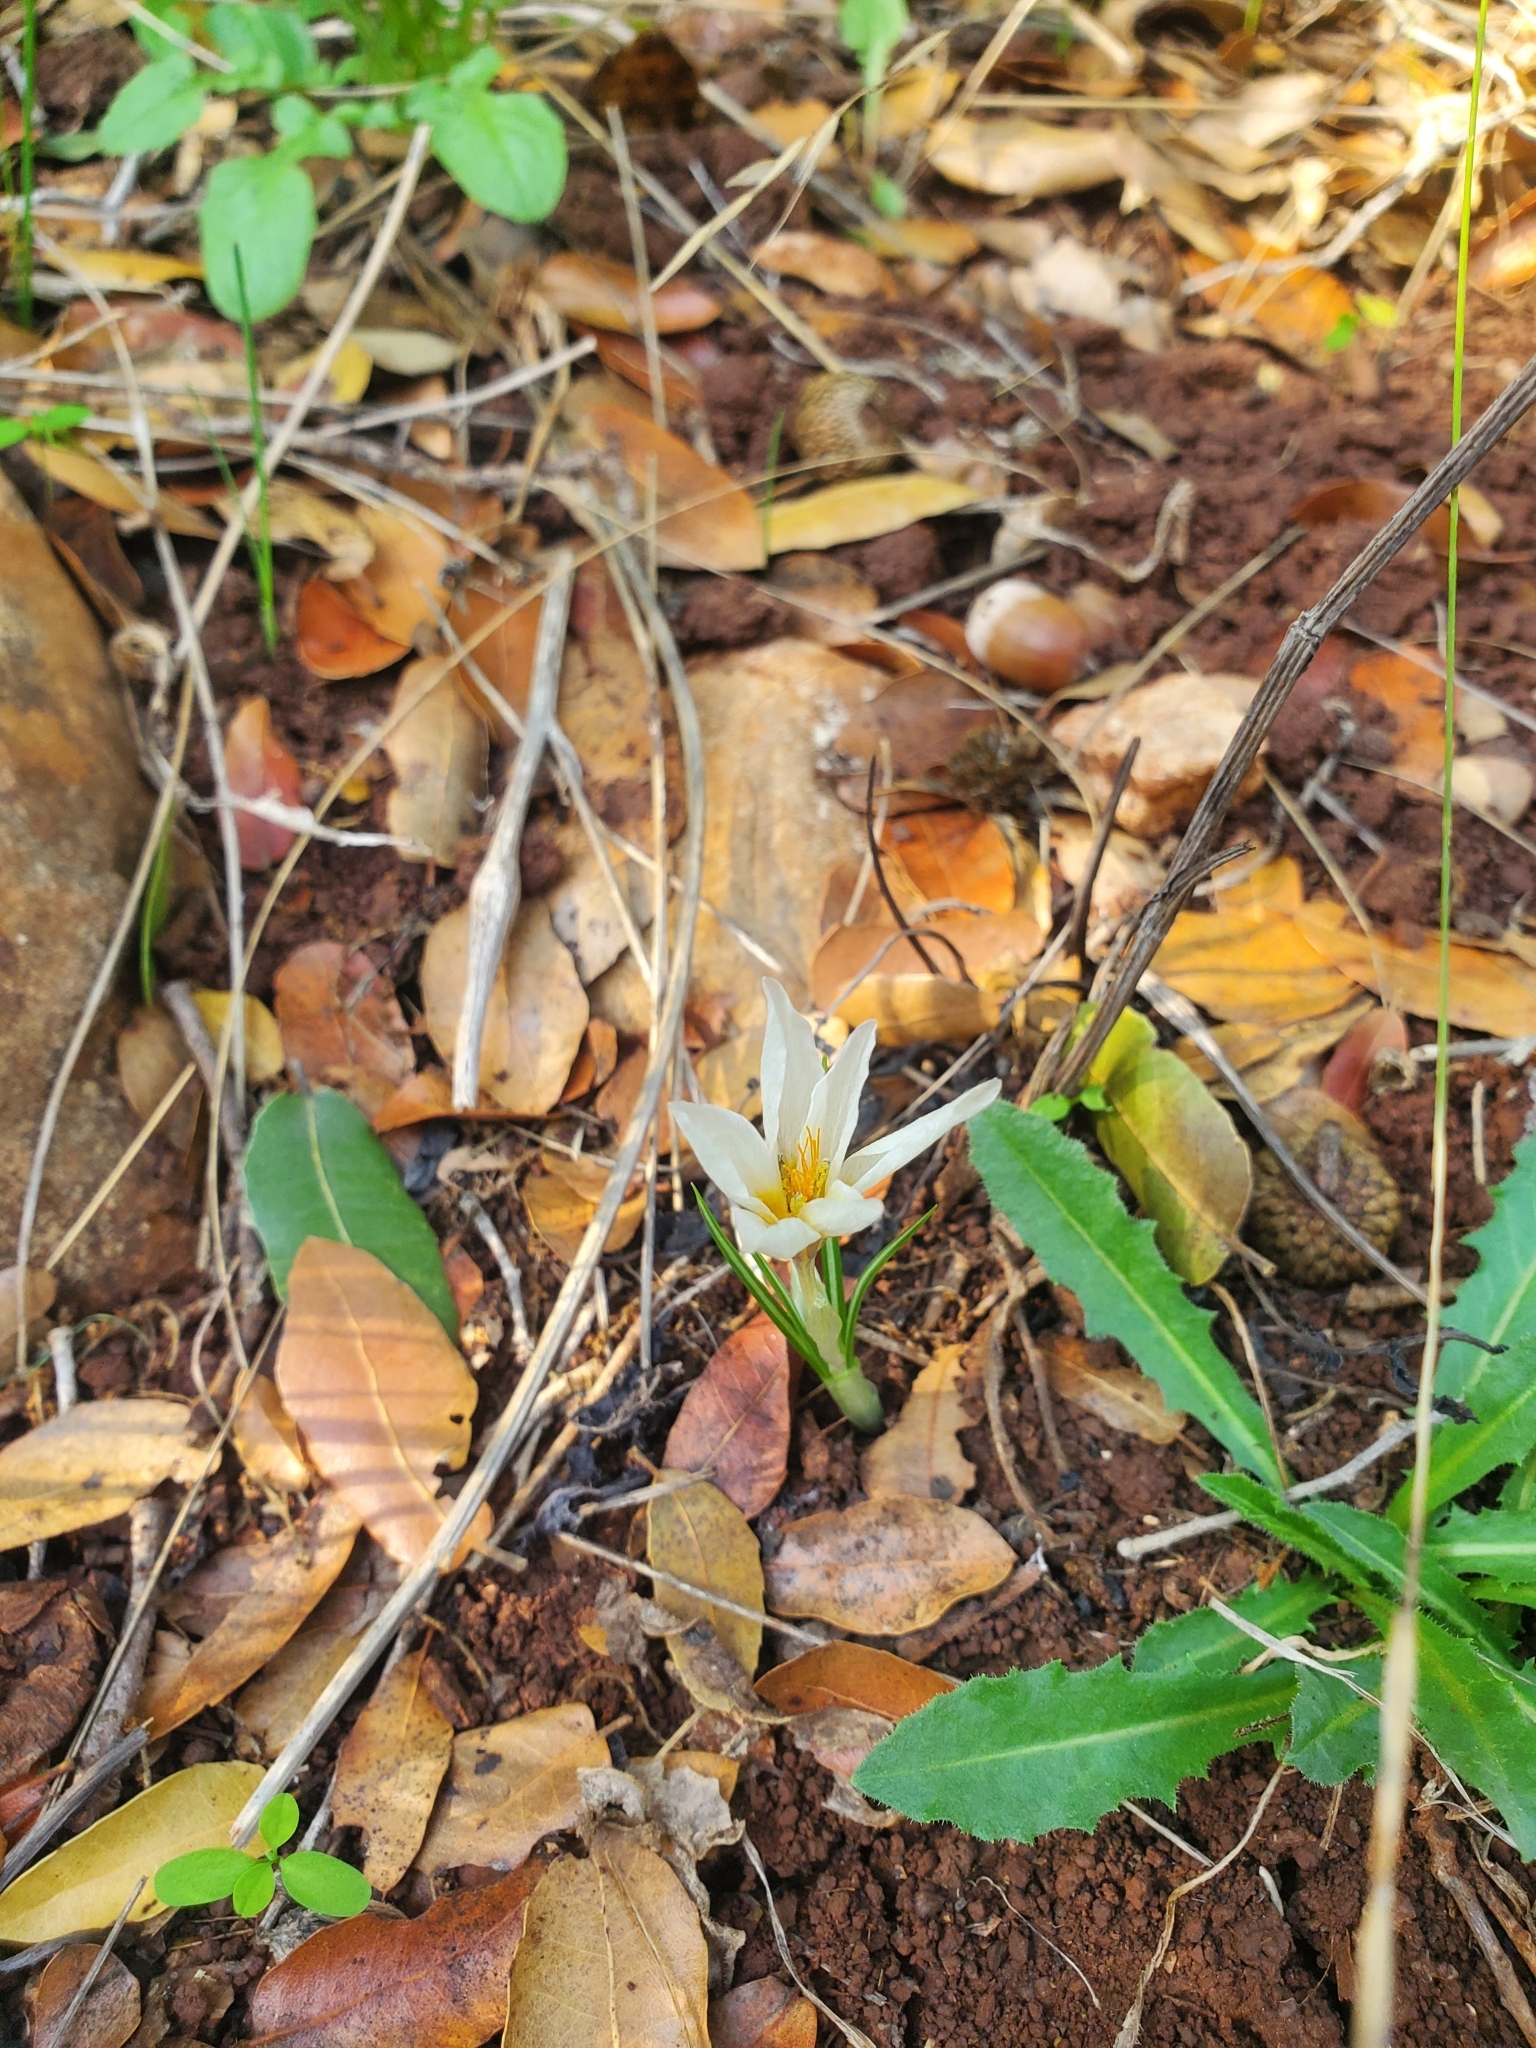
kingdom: Plantae
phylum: Tracheophyta
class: Liliopsida
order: Asparagales
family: Iridaceae
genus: Crocus
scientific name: Crocus hyemalis
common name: Winter crocus
